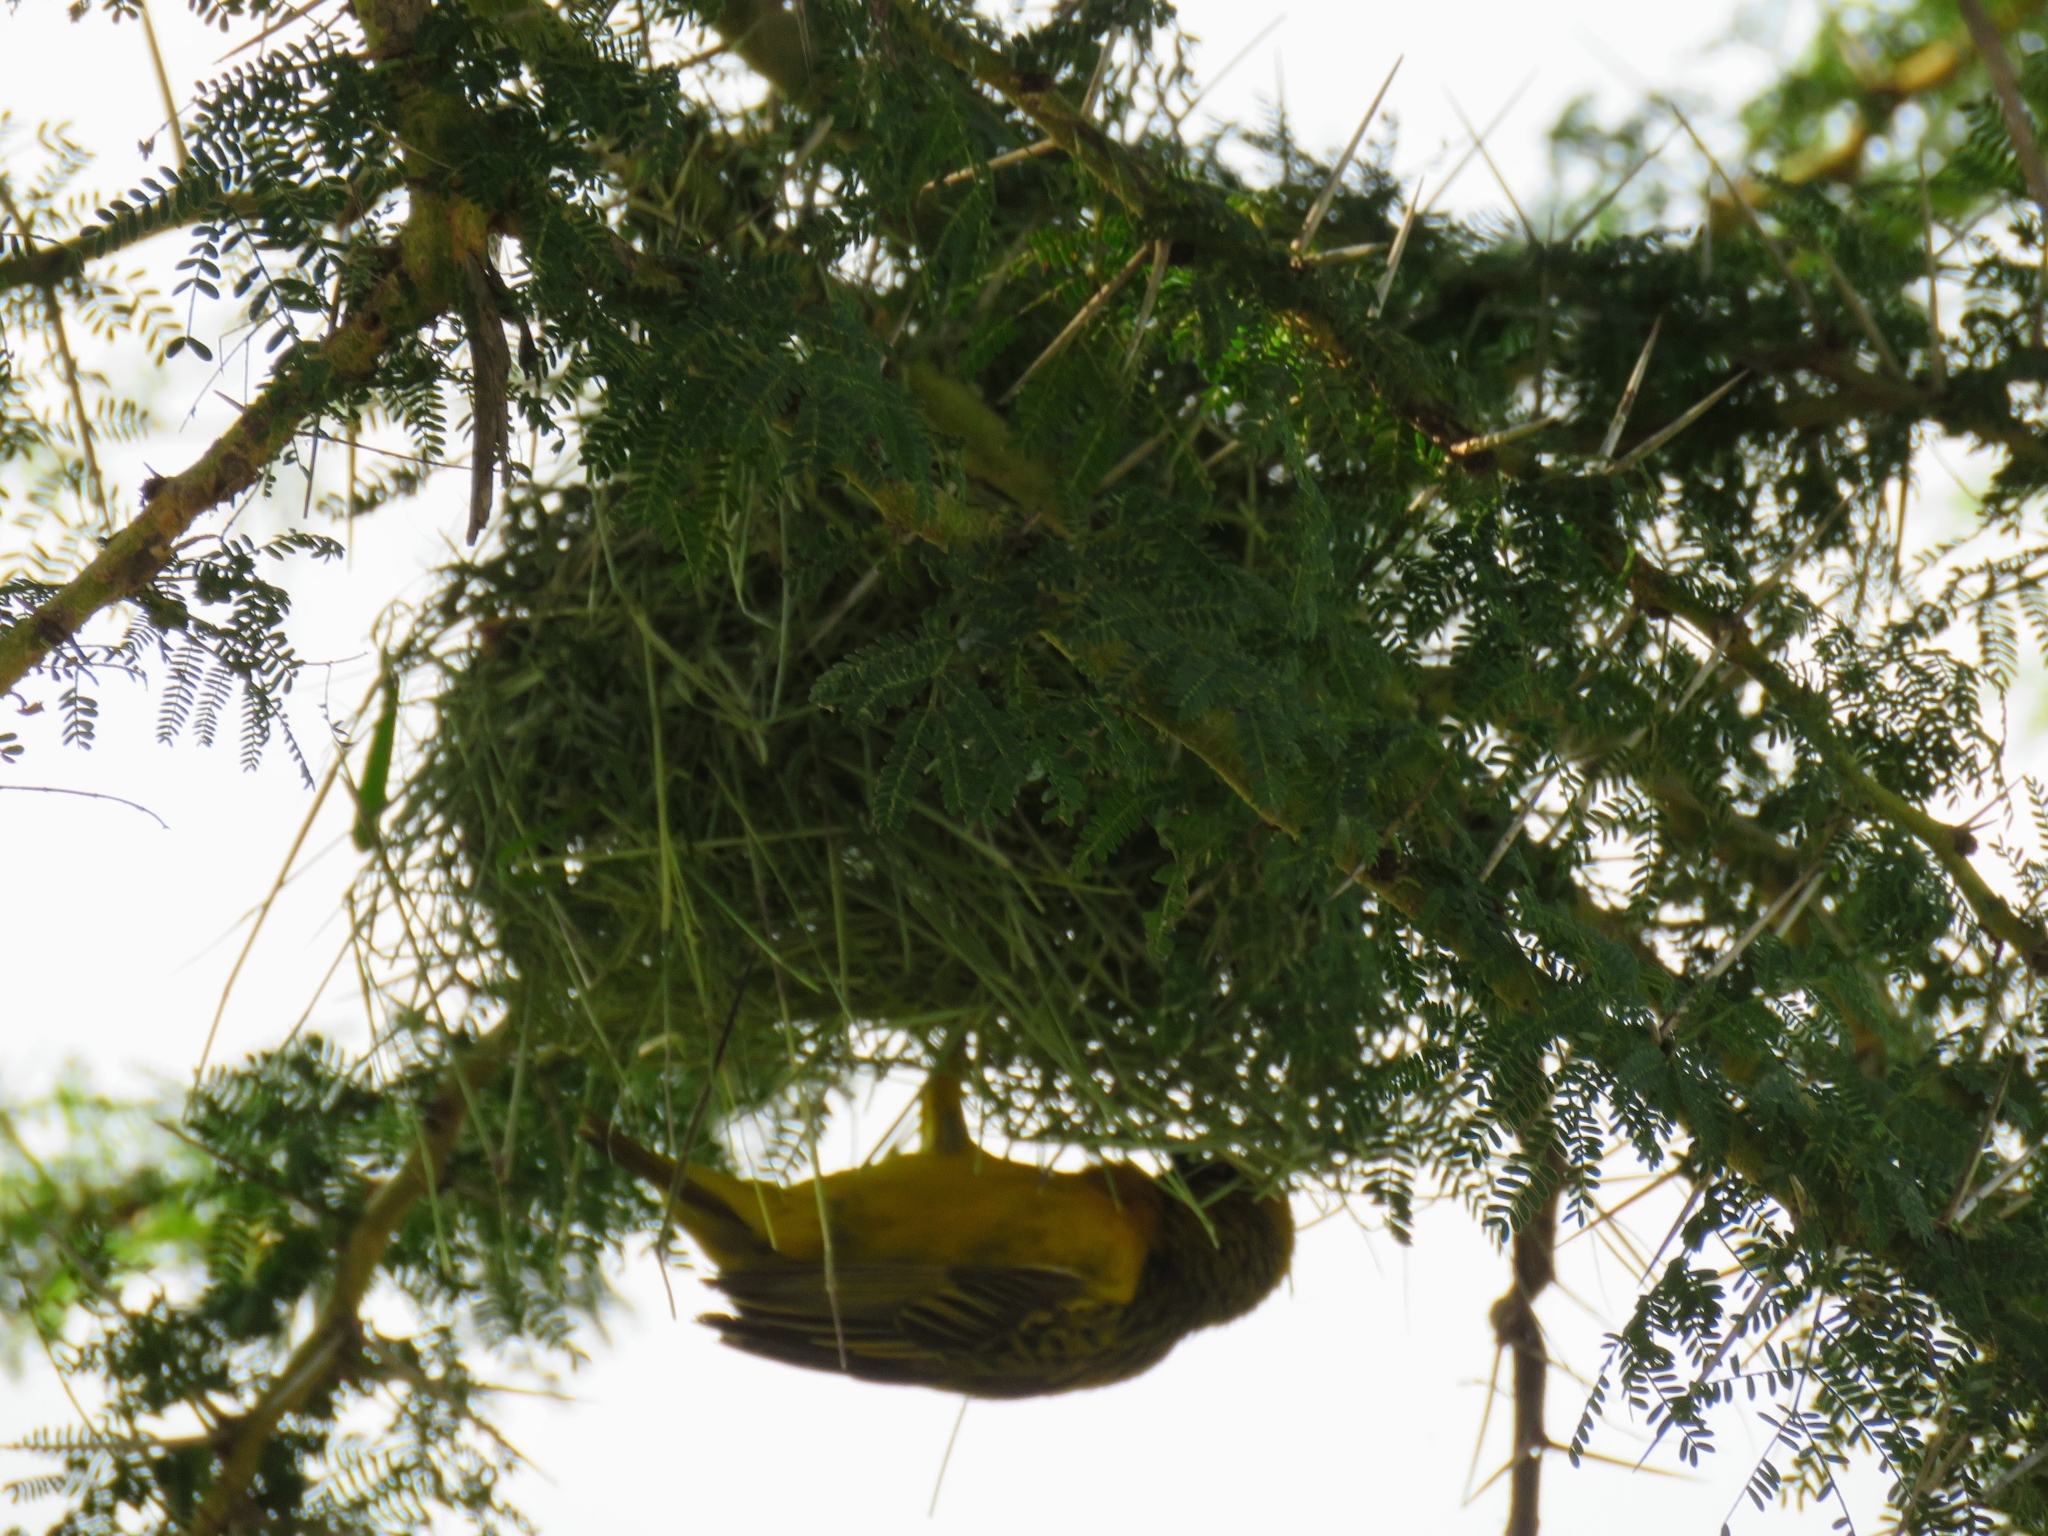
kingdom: Animalia
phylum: Chordata
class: Aves
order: Passeriformes
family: Ploceidae
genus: Ploceus
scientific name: Ploceus spekei
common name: Speke's weaver
